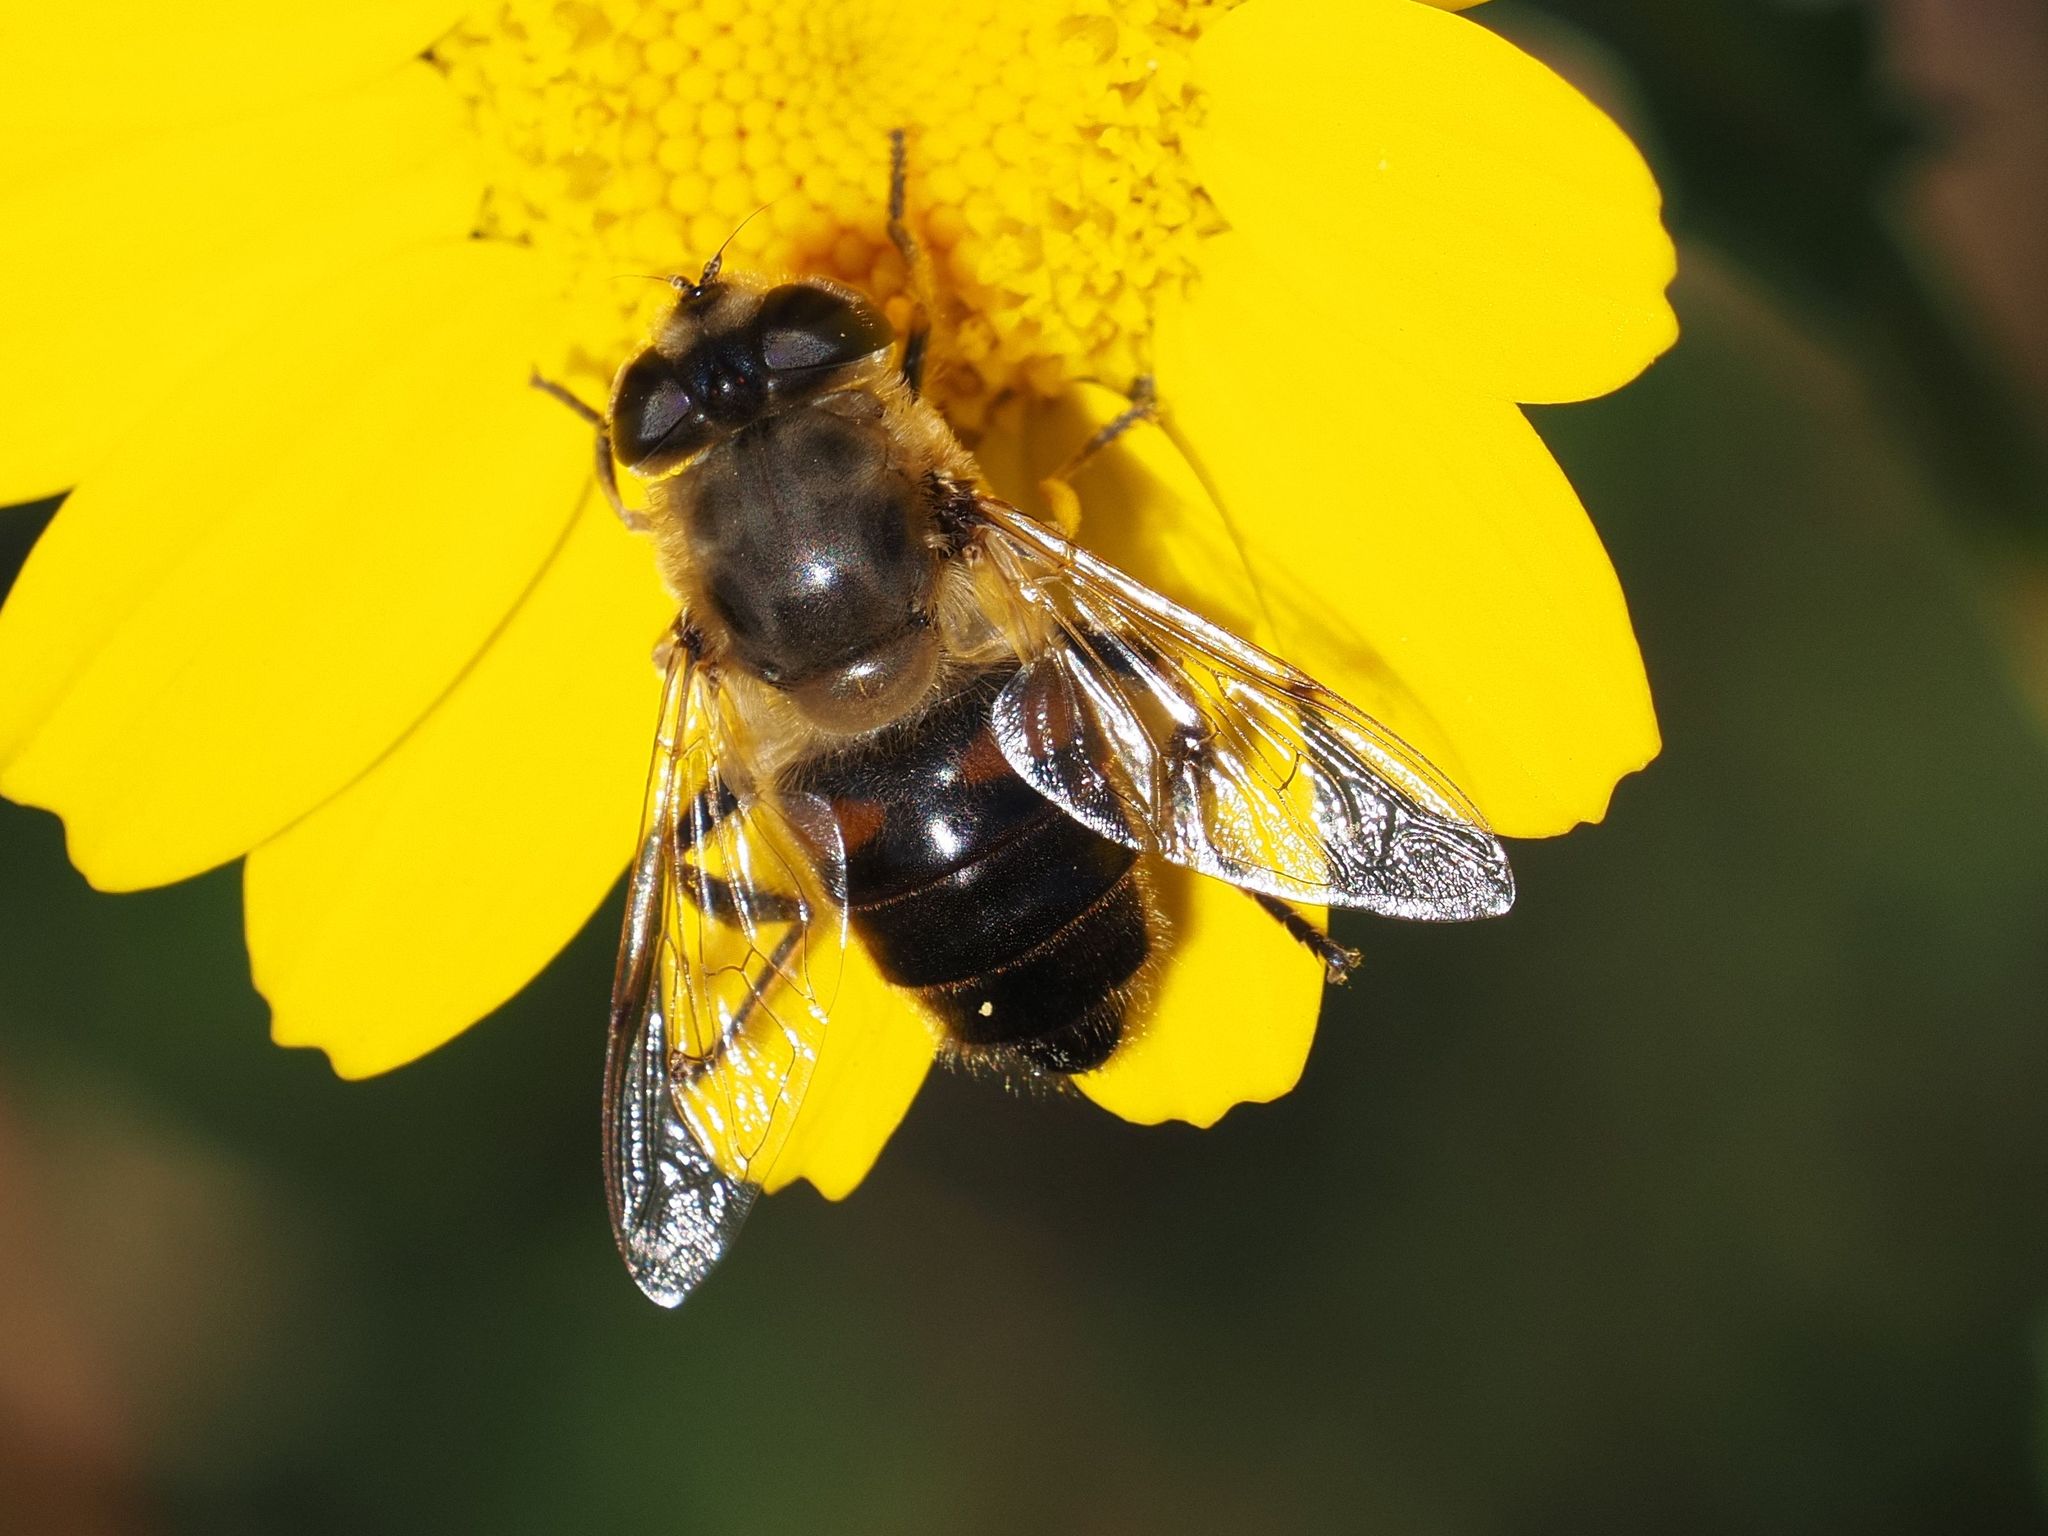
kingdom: Animalia
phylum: Arthropoda
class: Insecta
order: Diptera
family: Syrphidae
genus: Eristalis
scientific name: Eristalis tenax
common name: Drone fly
